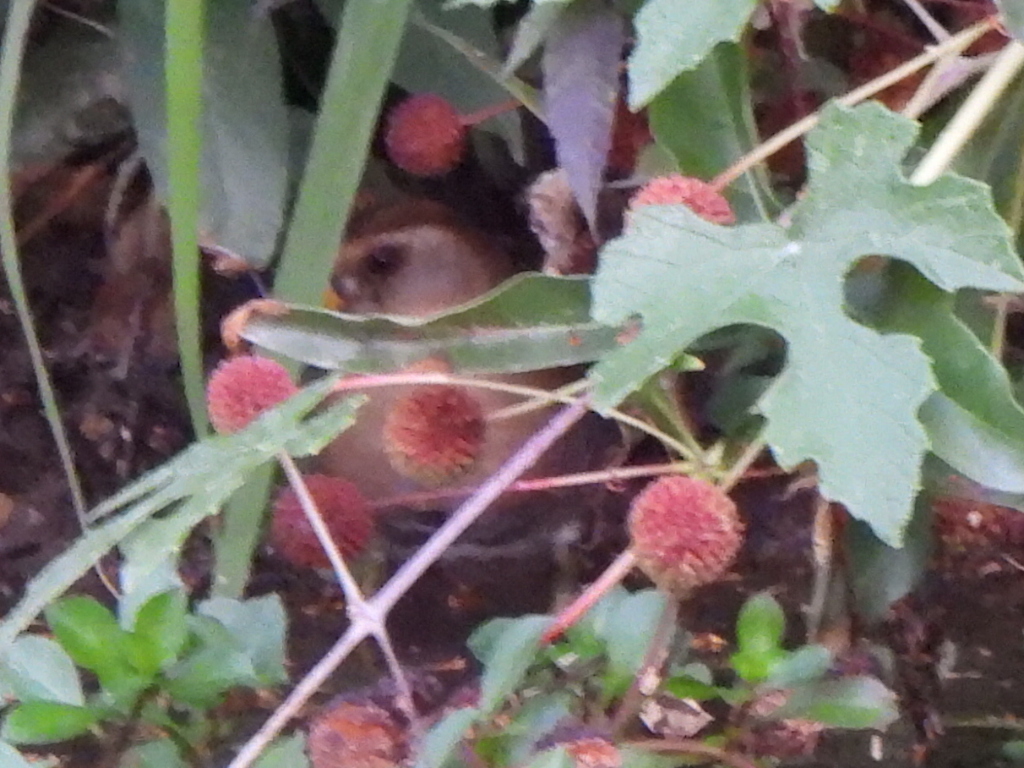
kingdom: Animalia
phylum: Chordata
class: Aves
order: Gruiformes
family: Rallidae
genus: Porzana
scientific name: Porzana carolina
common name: Sora
